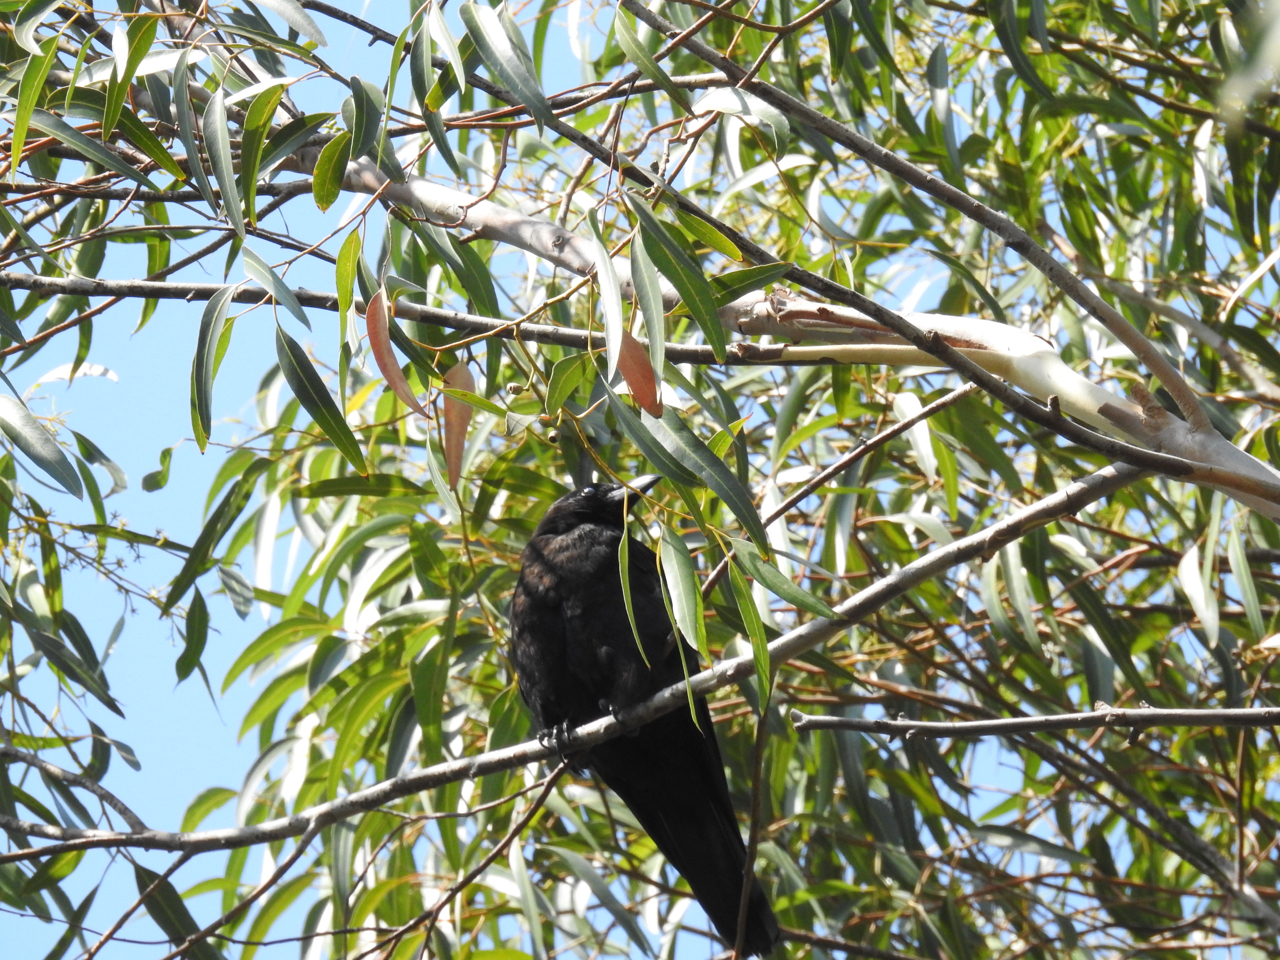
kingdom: Animalia
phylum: Chordata
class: Aves
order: Passeriformes
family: Corvidae
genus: Corvus
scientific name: Corvus brachyrhynchos
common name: American crow
